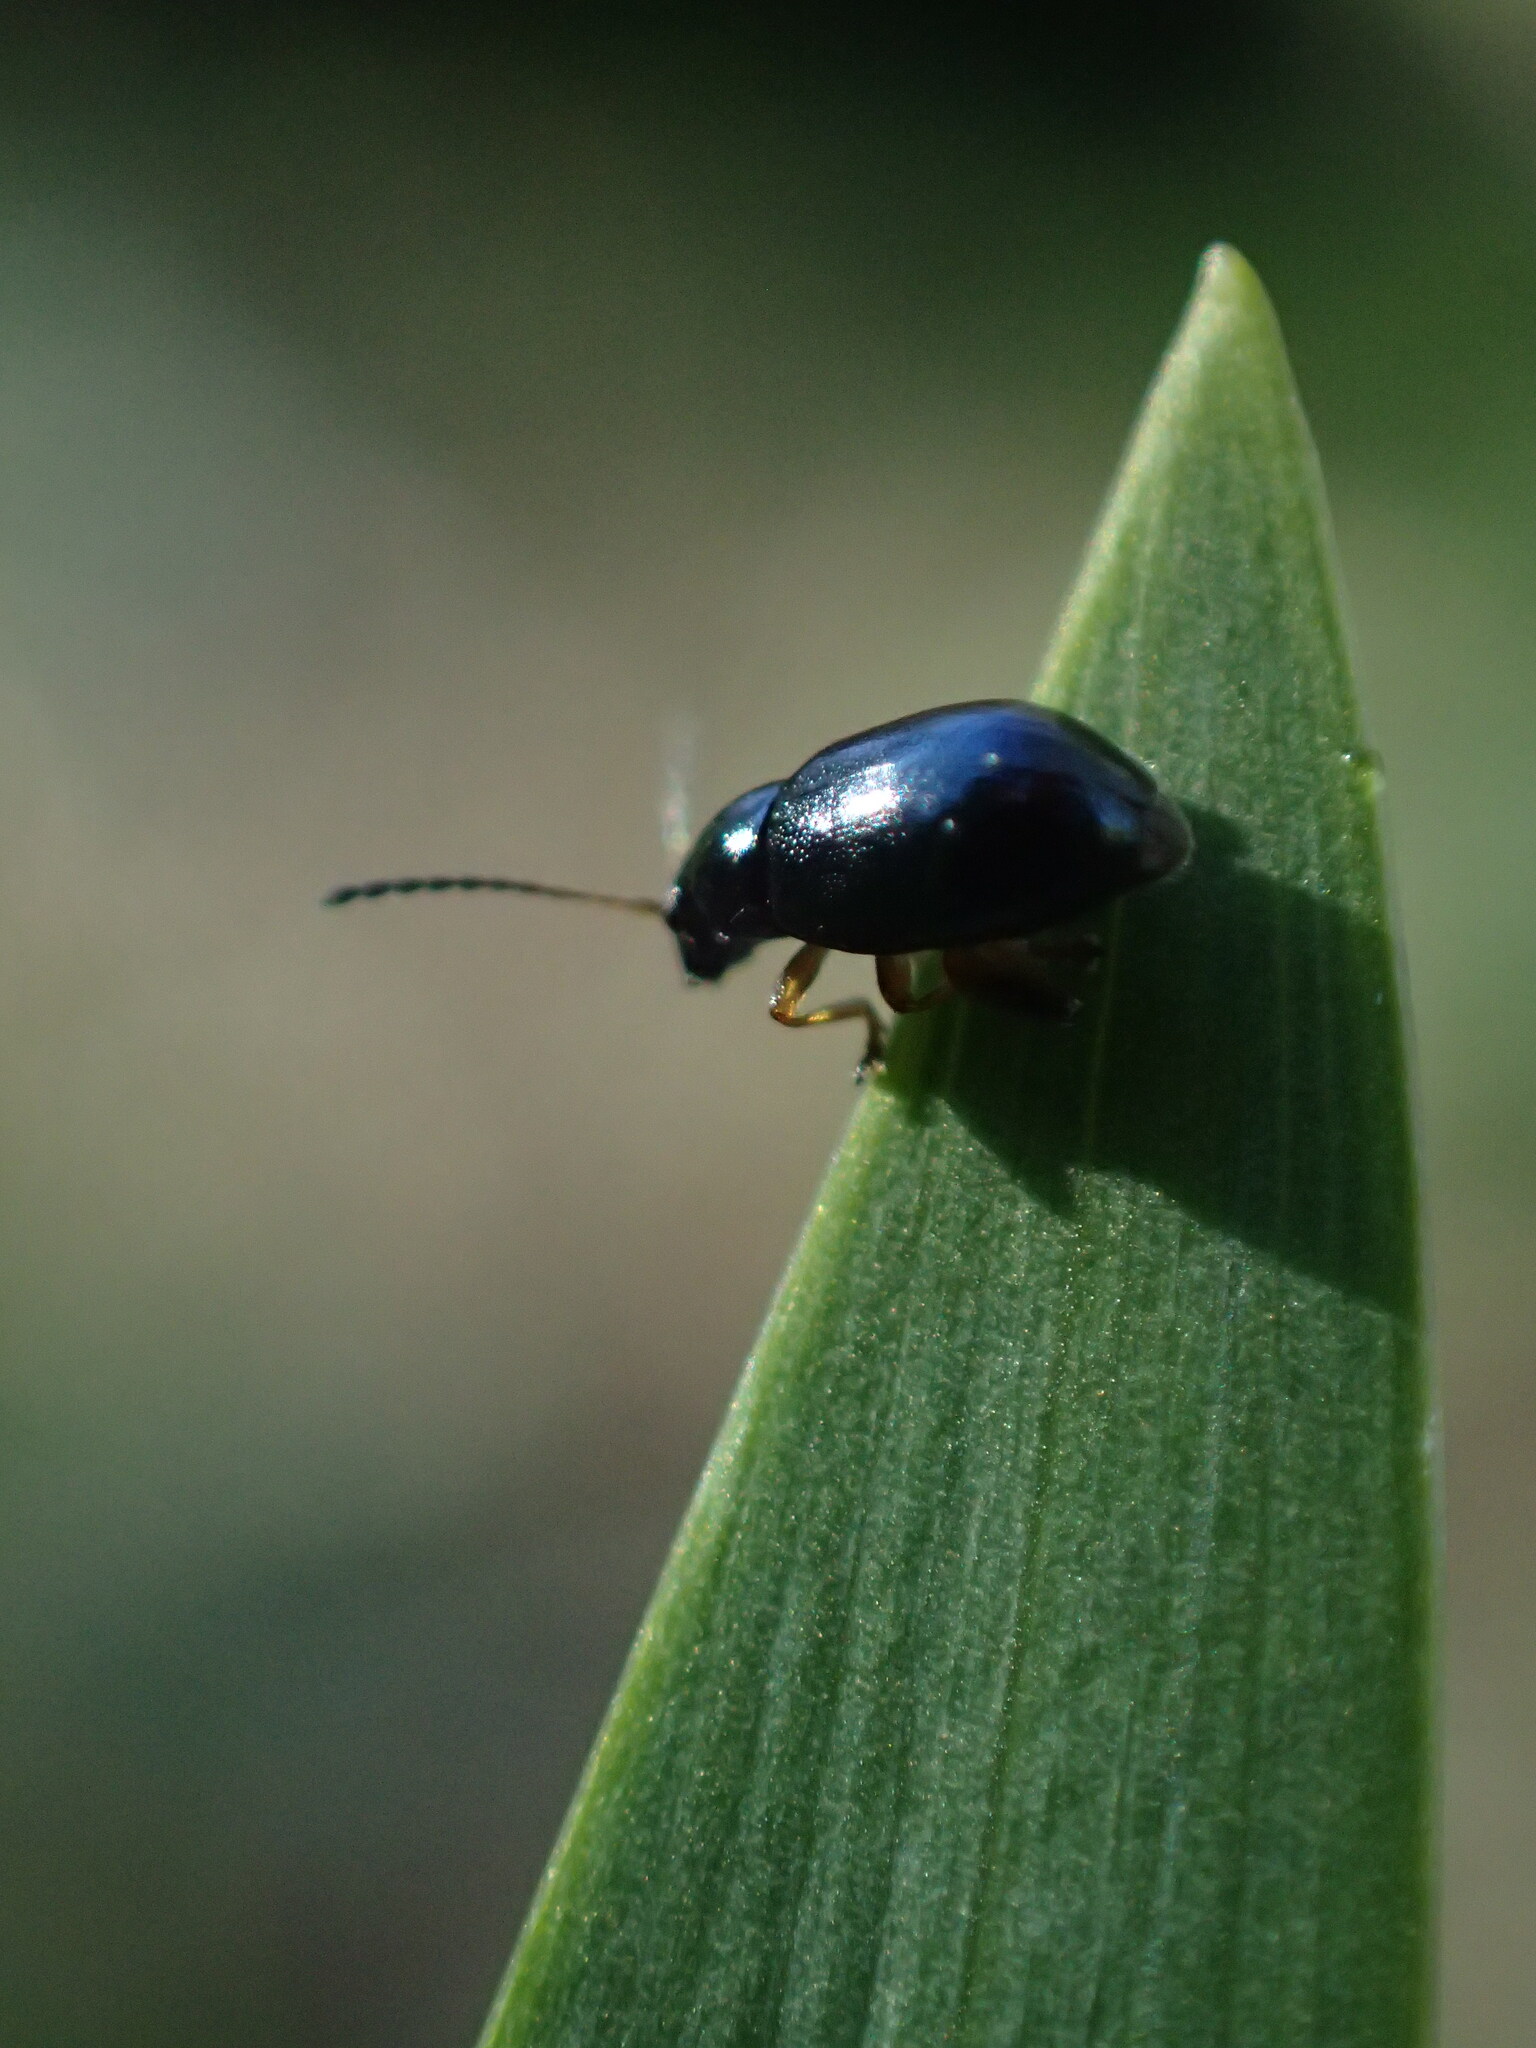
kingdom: Animalia
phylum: Arthropoda
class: Insecta
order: Coleoptera
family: Chrysomelidae
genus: Aphthona
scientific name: Aphthona nonstriata
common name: Iris flea beetle
